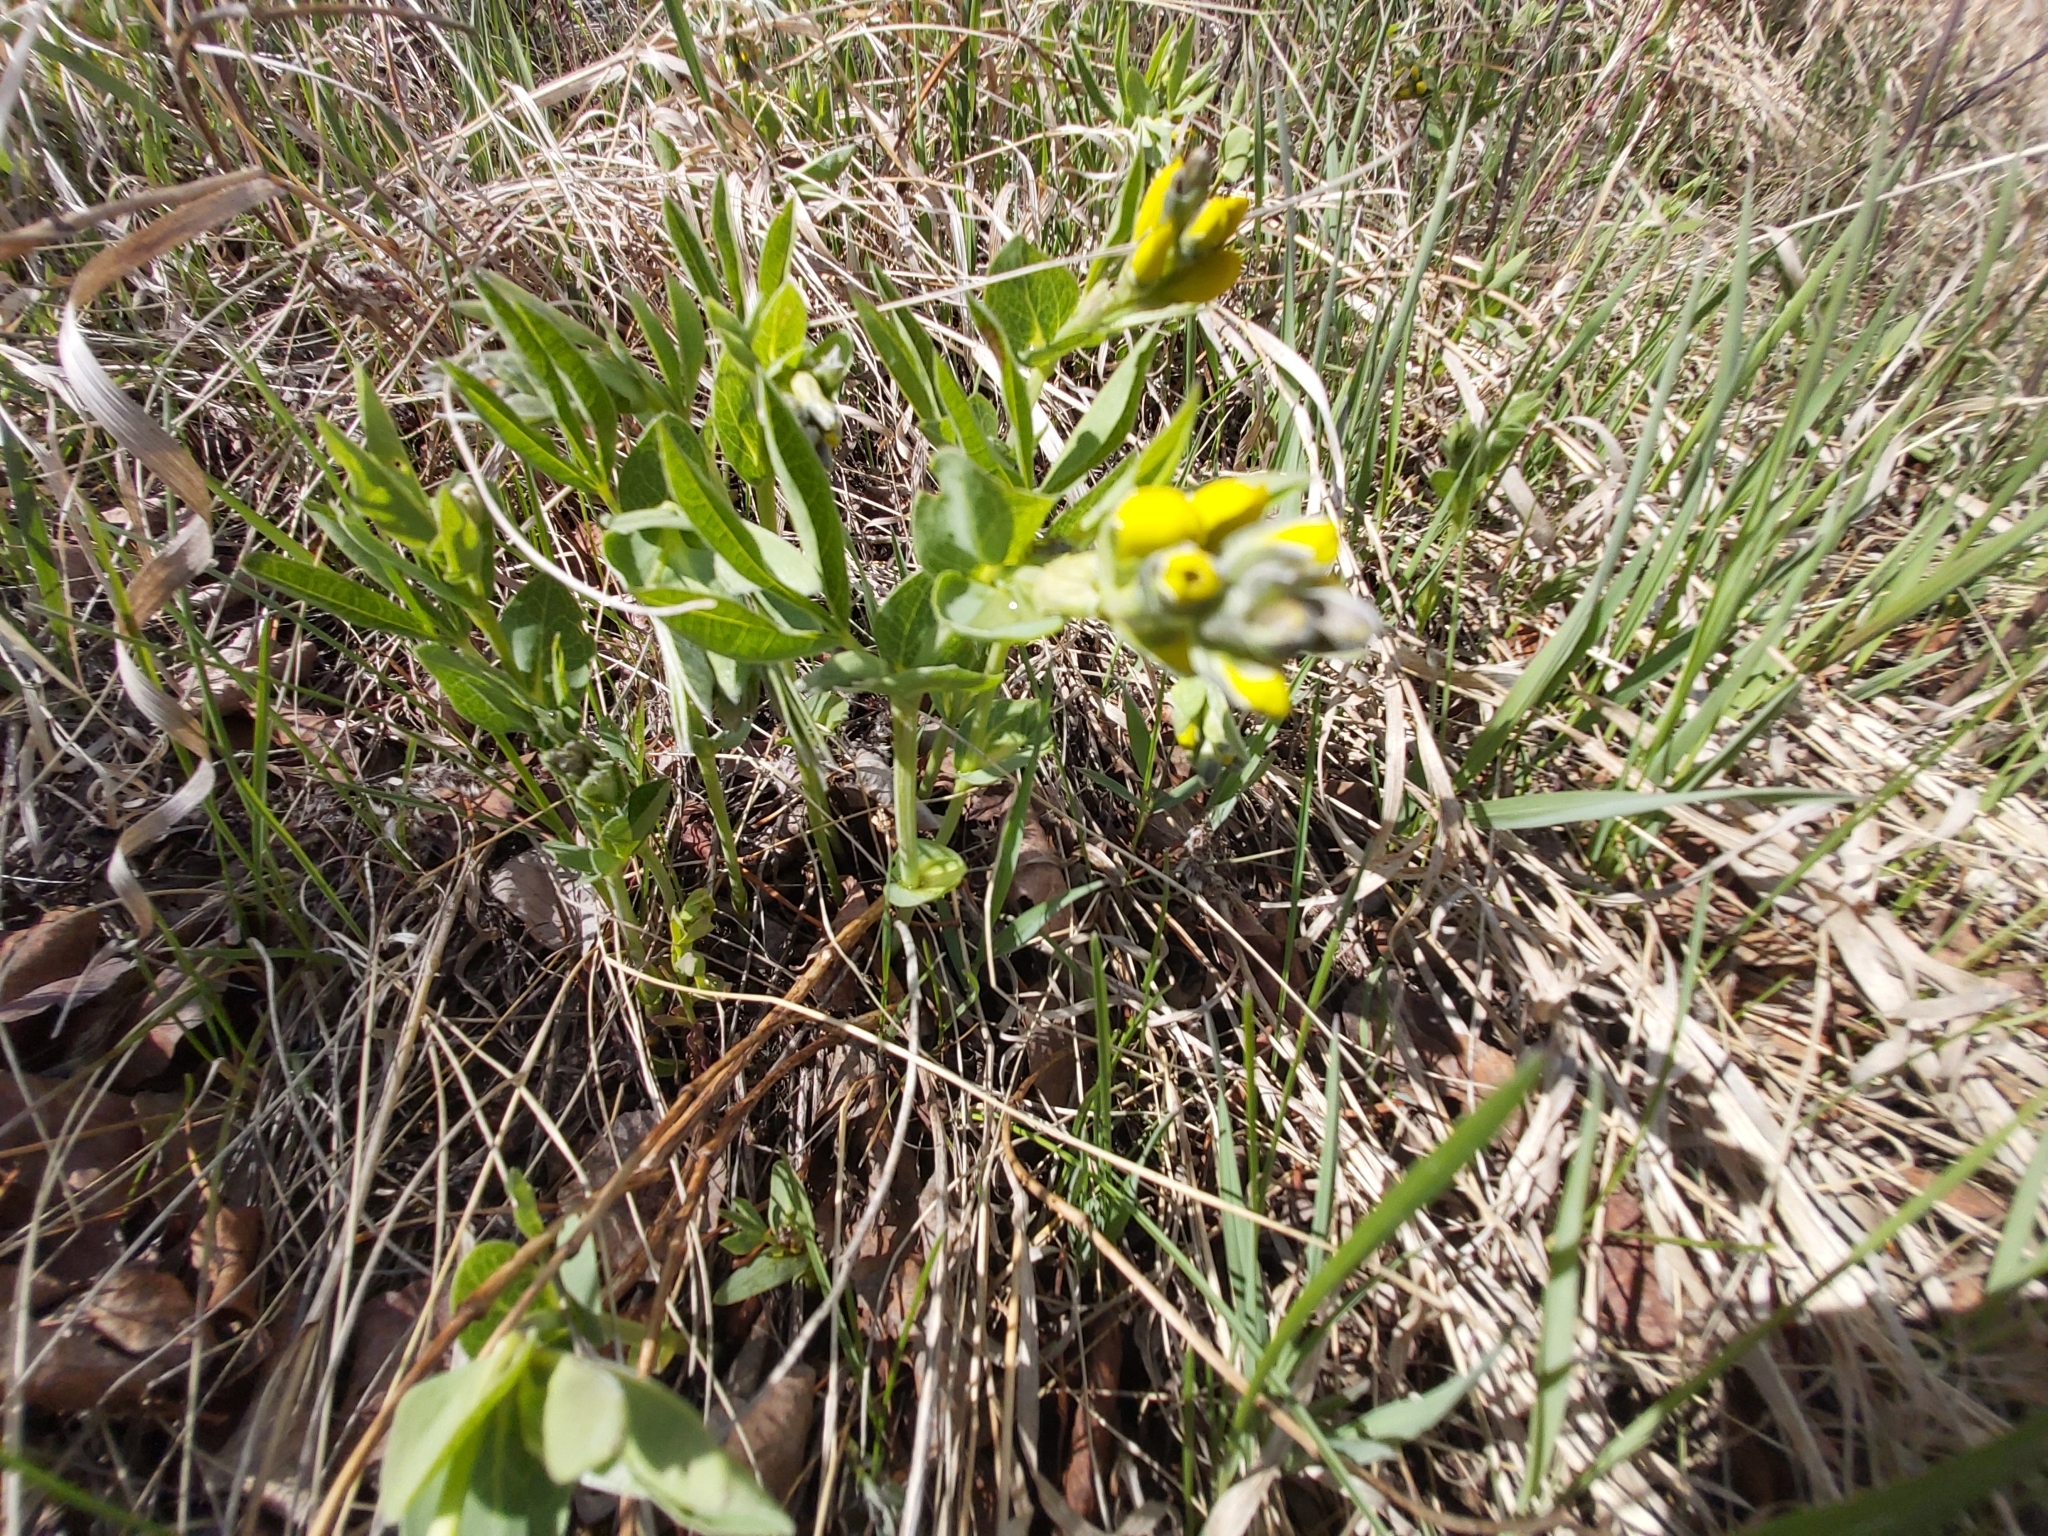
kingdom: Plantae
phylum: Tracheophyta
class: Magnoliopsida
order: Fabales
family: Fabaceae
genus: Thermopsis
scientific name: Thermopsis rhombifolia
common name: Circle-pod-pea
